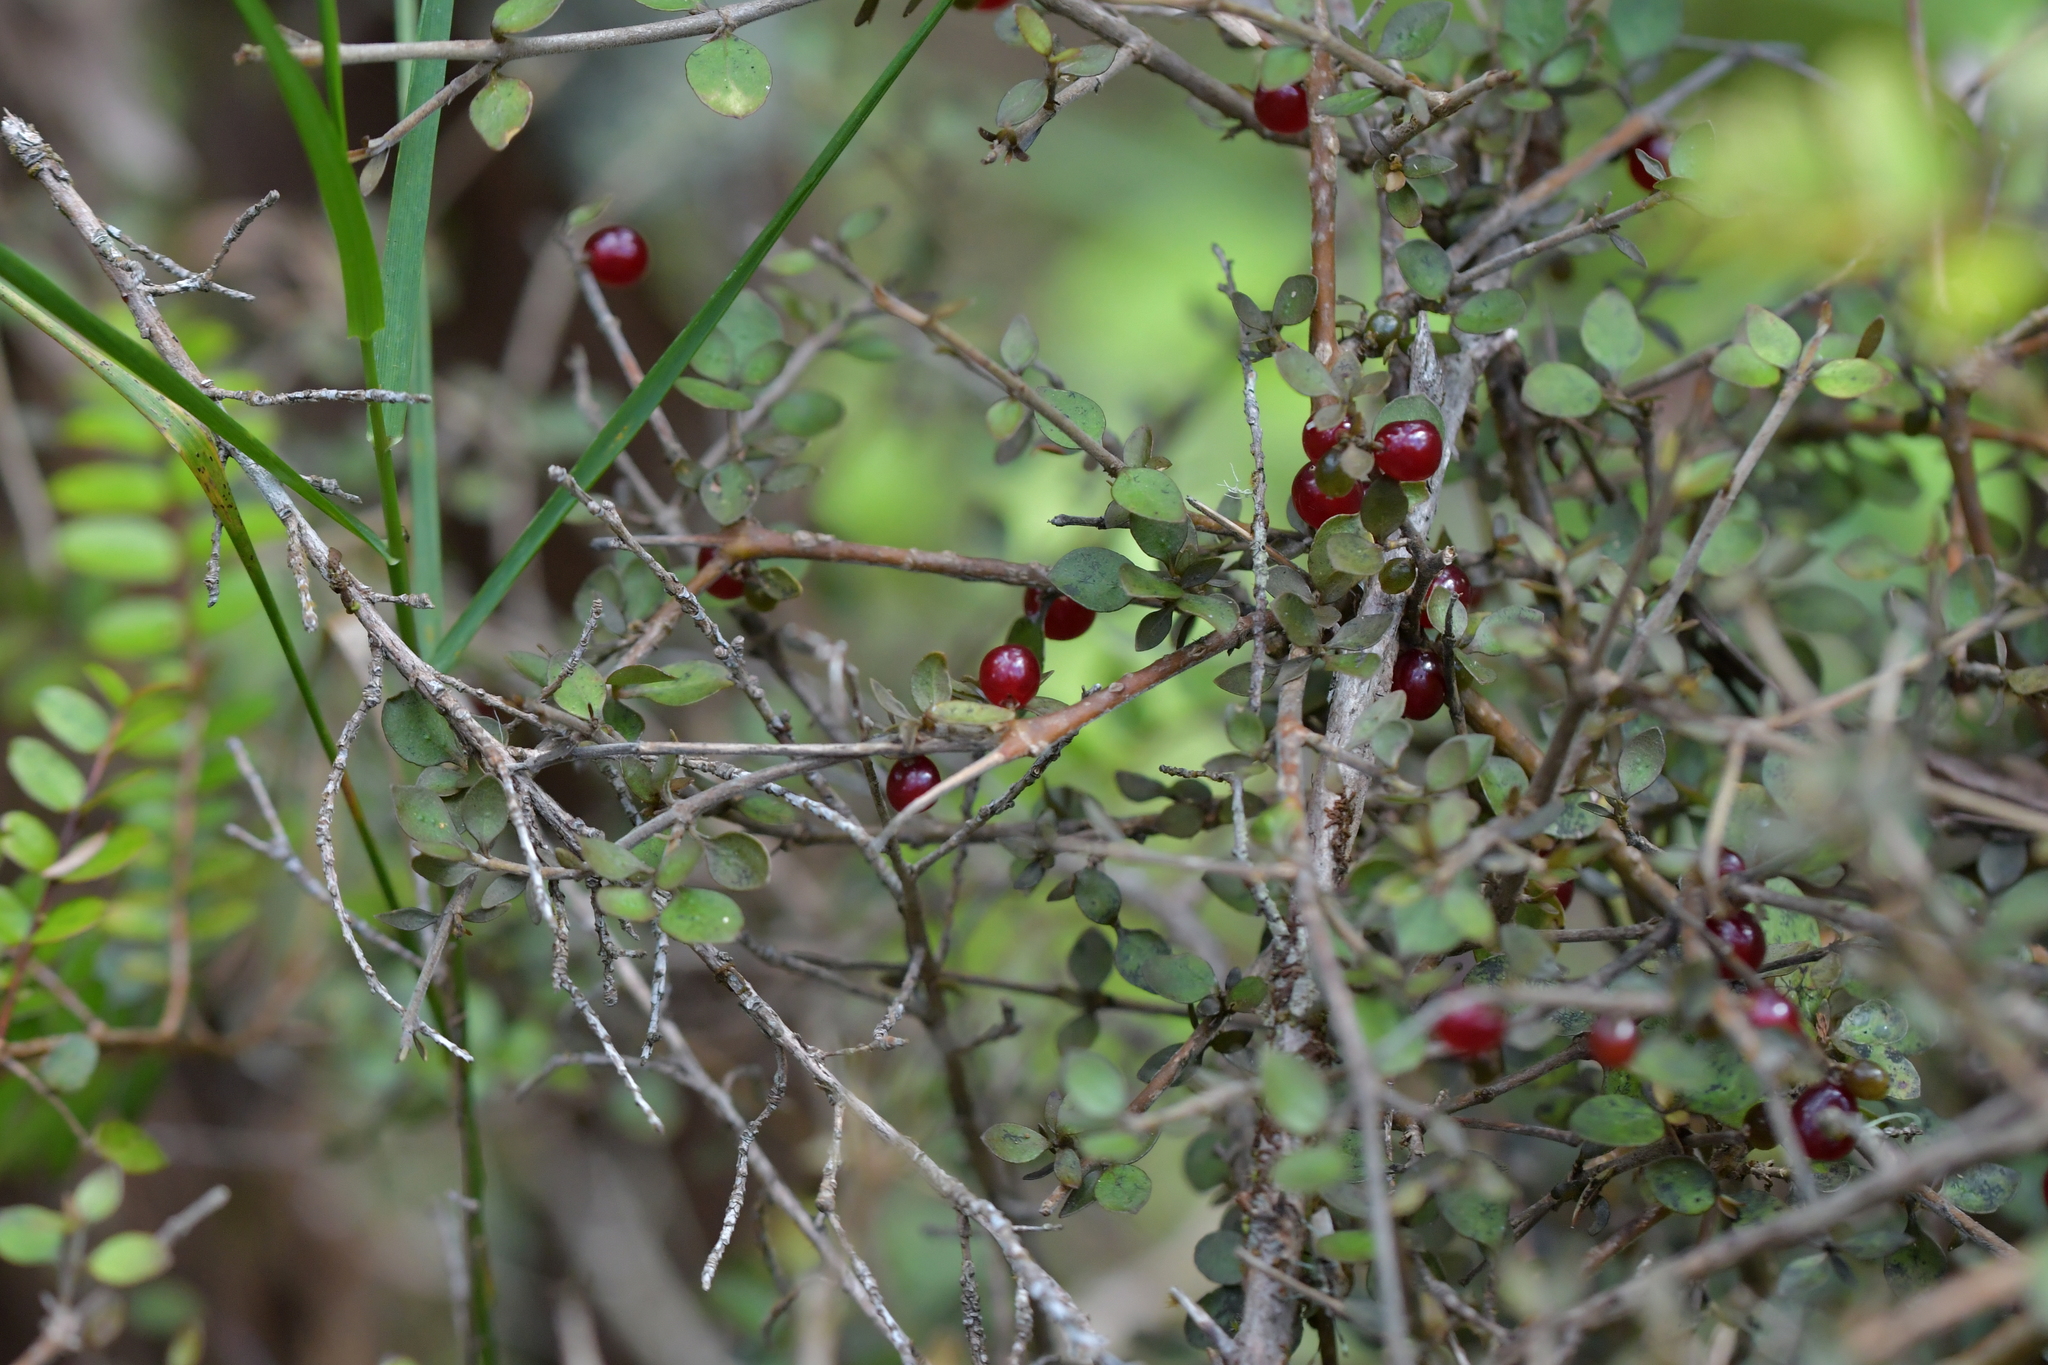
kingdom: Plantae
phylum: Tracheophyta
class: Magnoliopsida
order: Gentianales
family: Rubiaceae
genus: Coprosma
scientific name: Coprosma rhamnoides
